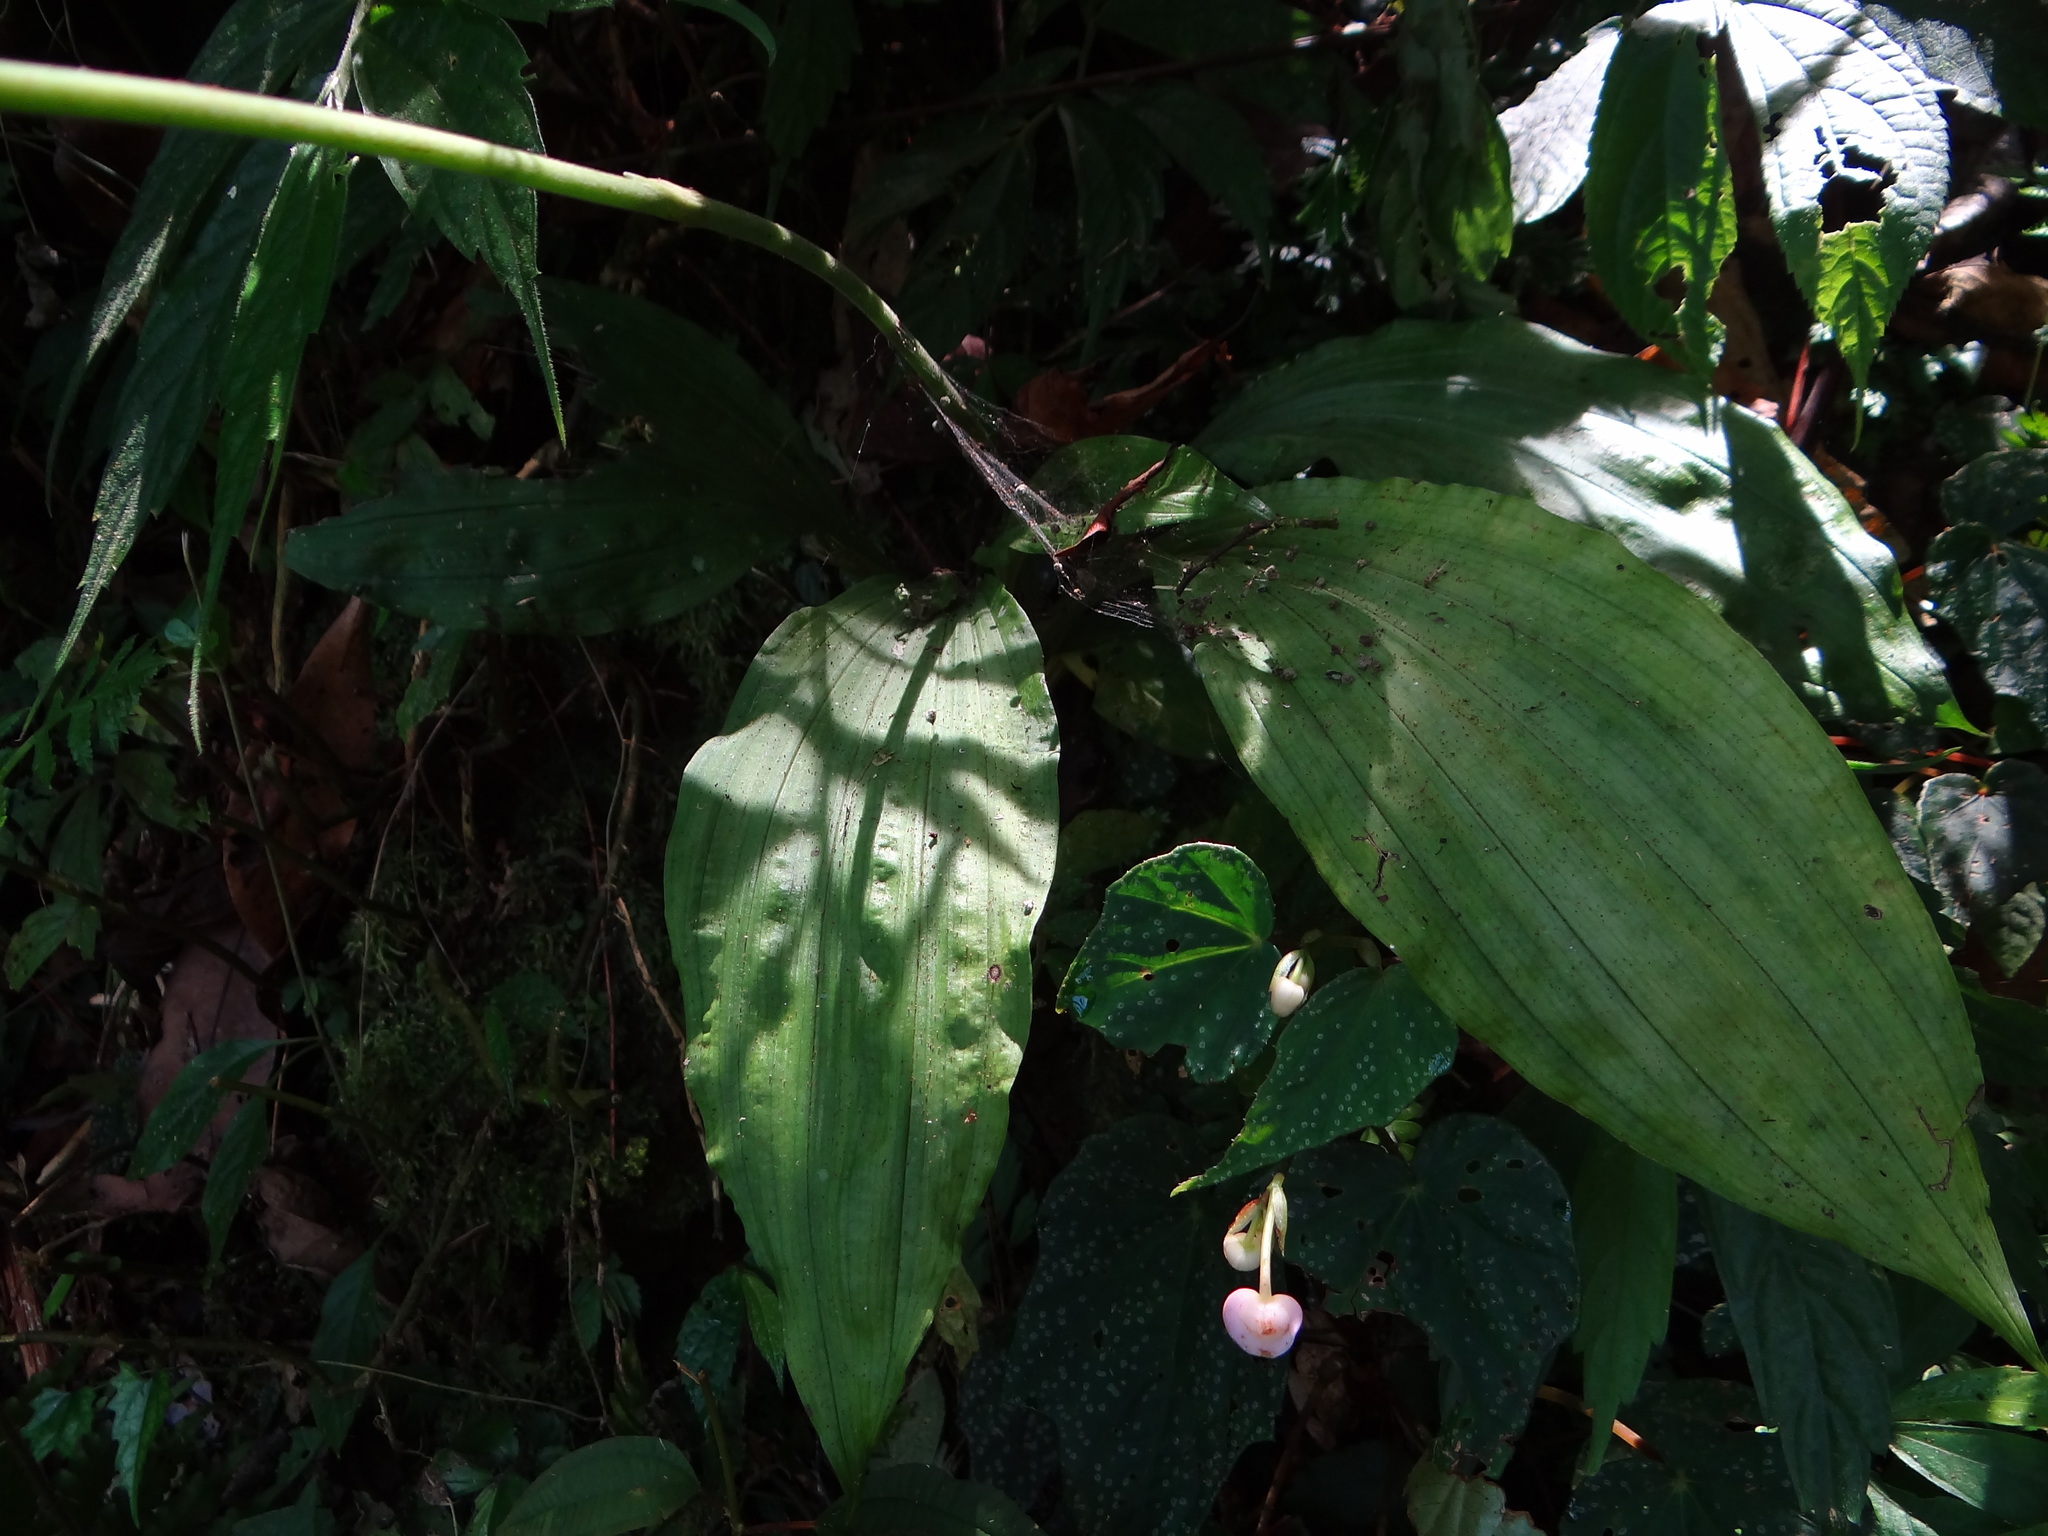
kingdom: Plantae
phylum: Tracheophyta
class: Liliopsida
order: Asparagales
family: Orchidaceae
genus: Calanthe
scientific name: Calanthe masuca
